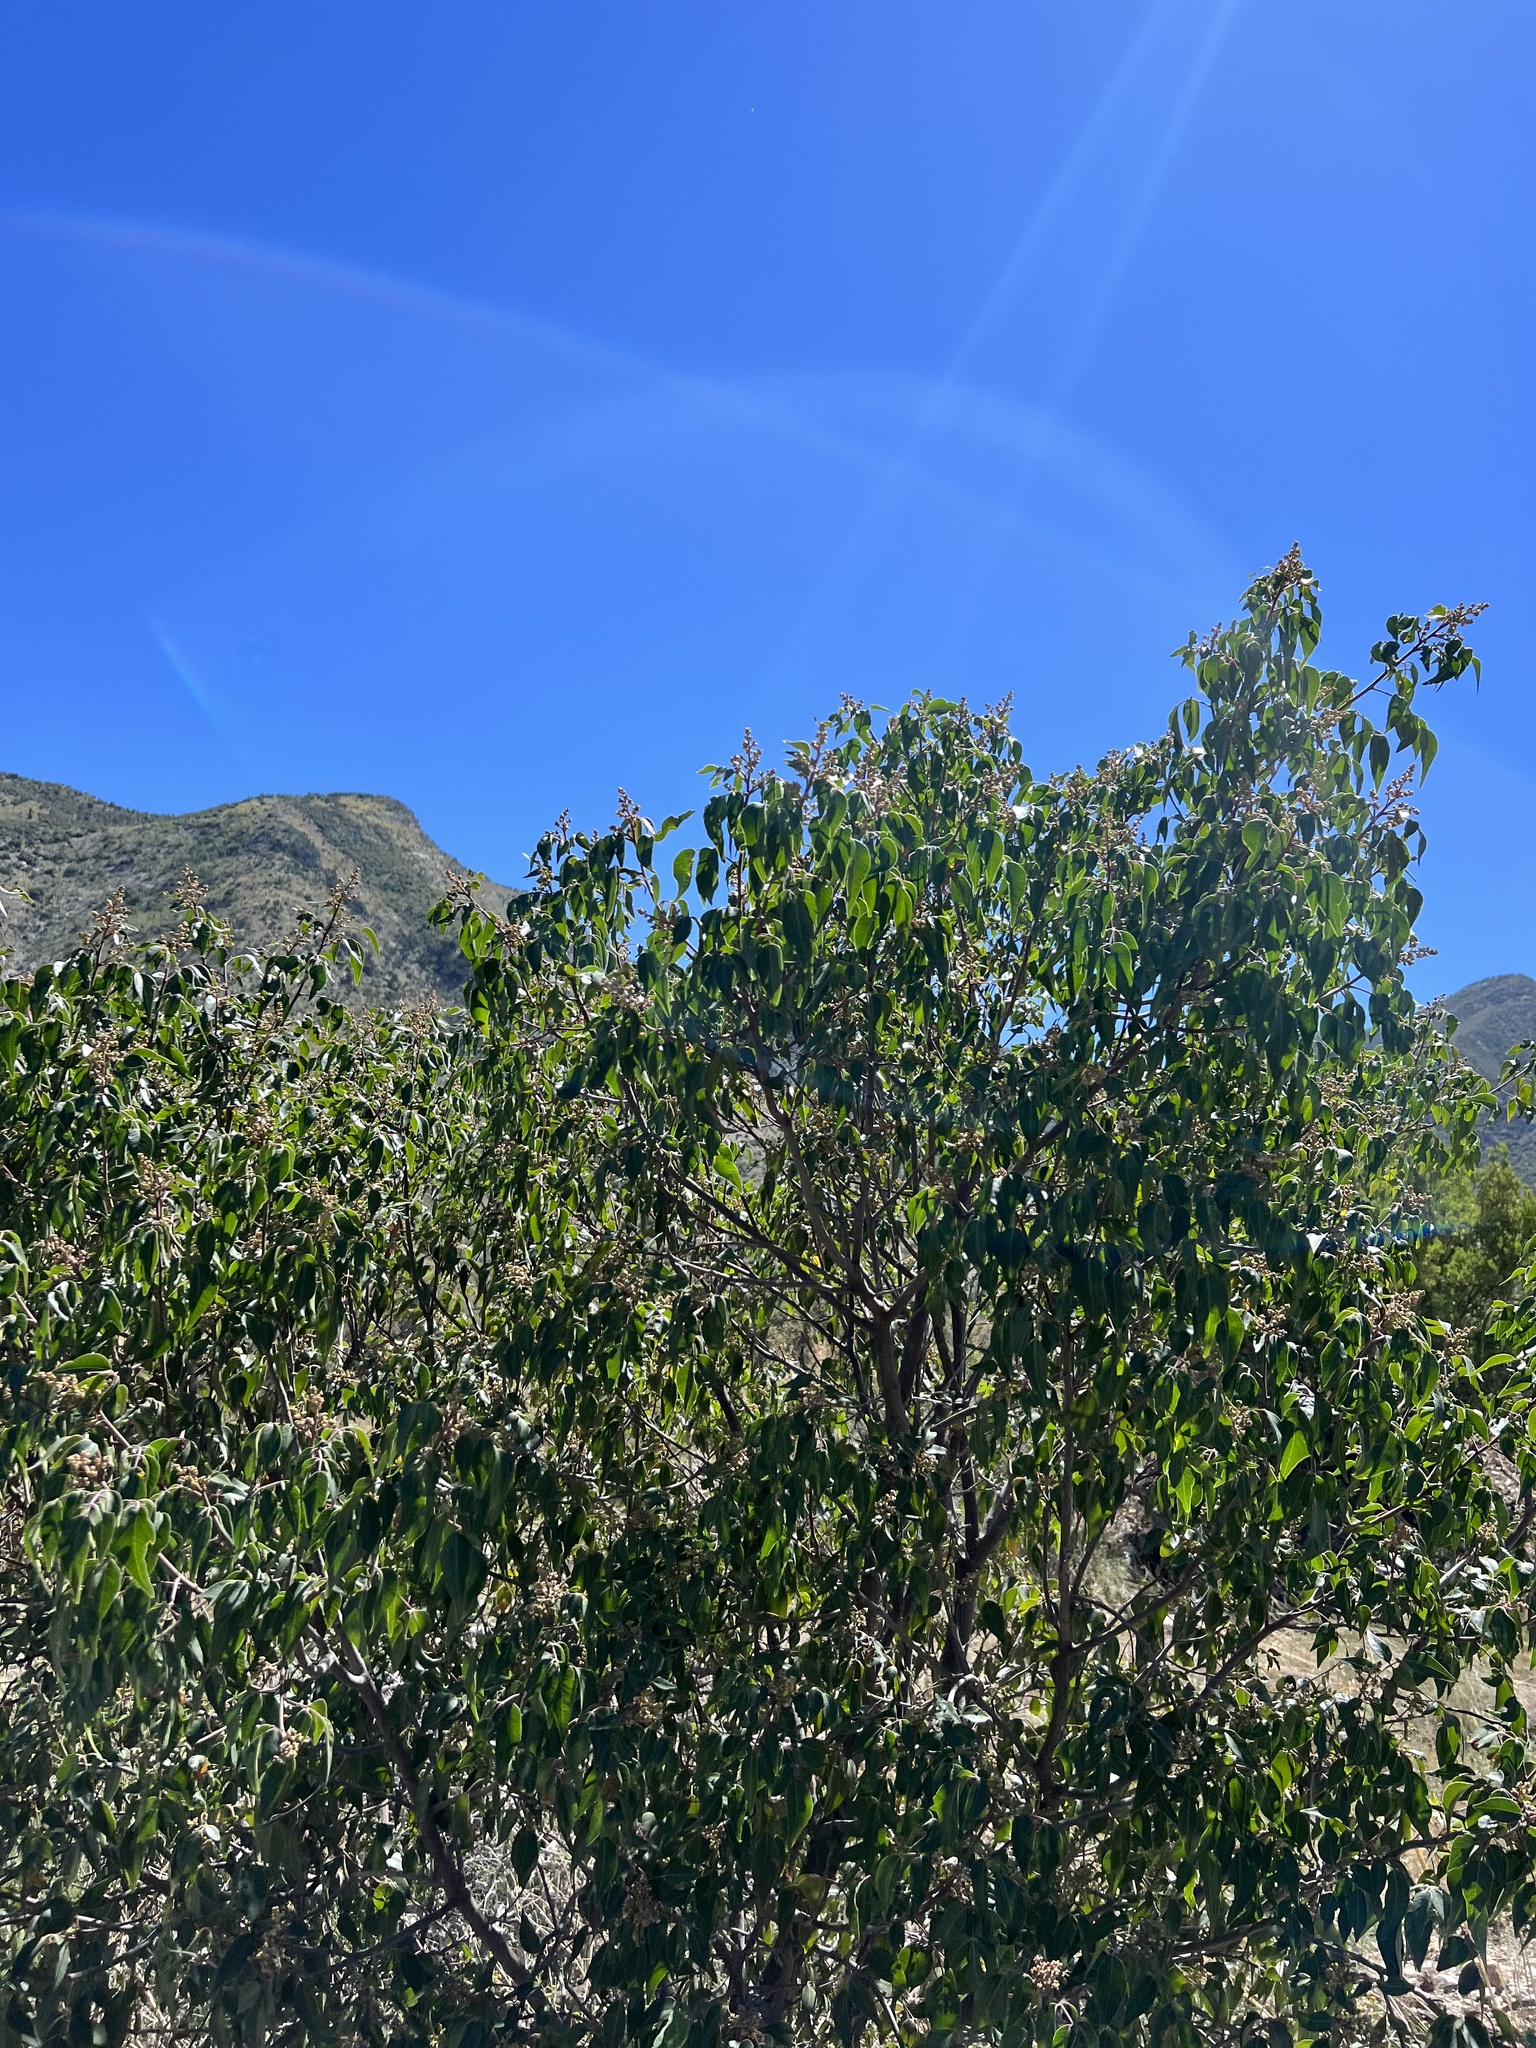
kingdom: Plantae
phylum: Tracheophyta
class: Magnoliopsida
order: Sapindales
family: Anacardiaceae
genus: Rhus
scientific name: Rhus virens
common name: Evergreen sumac
